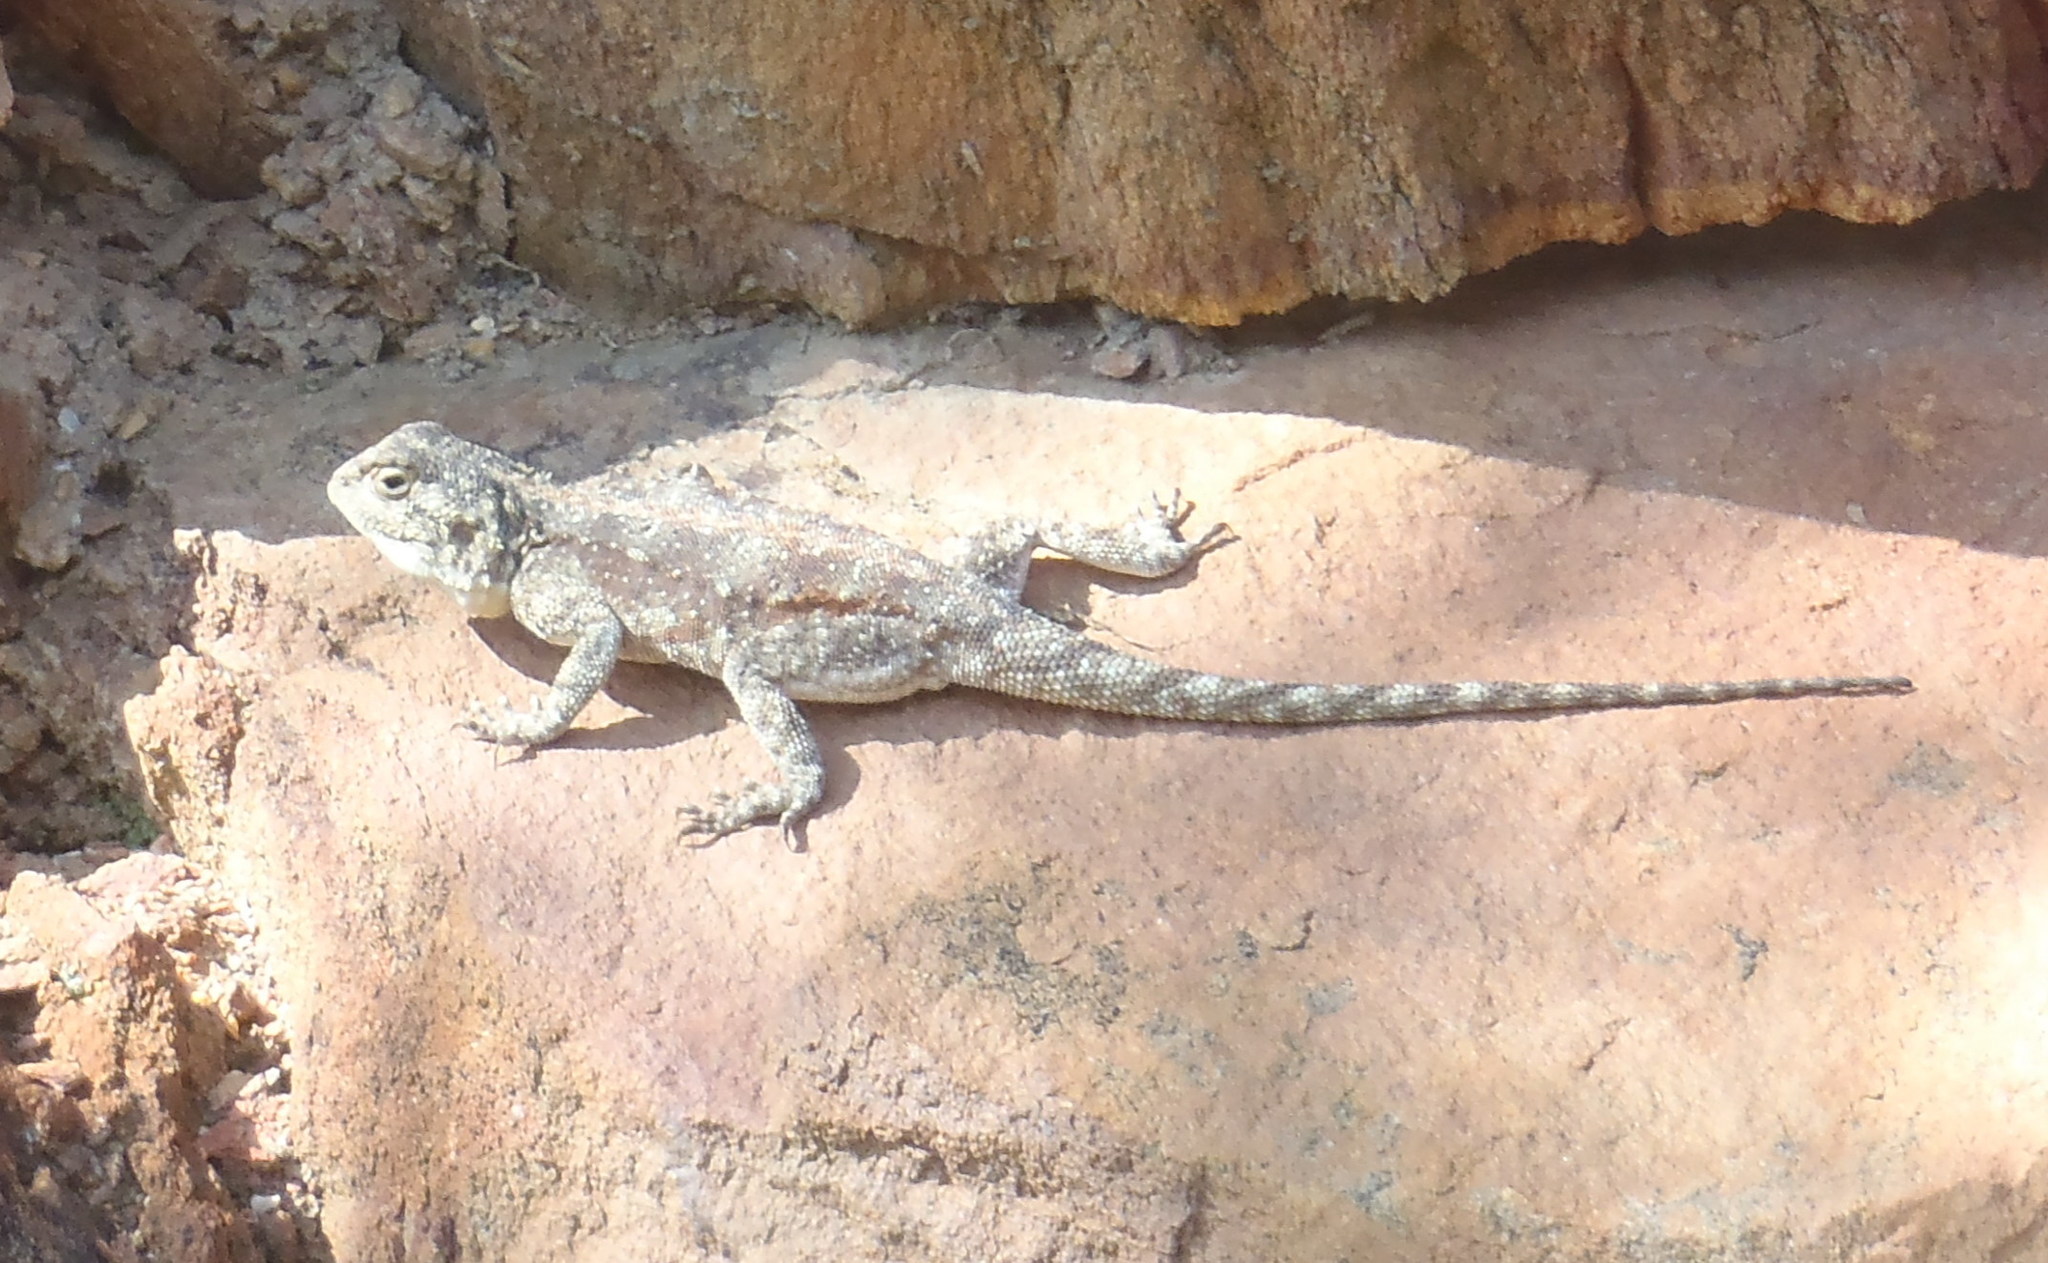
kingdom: Animalia
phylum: Chordata
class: Squamata
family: Agamidae
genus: Agama
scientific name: Agama atra
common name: Southern african rock agama
